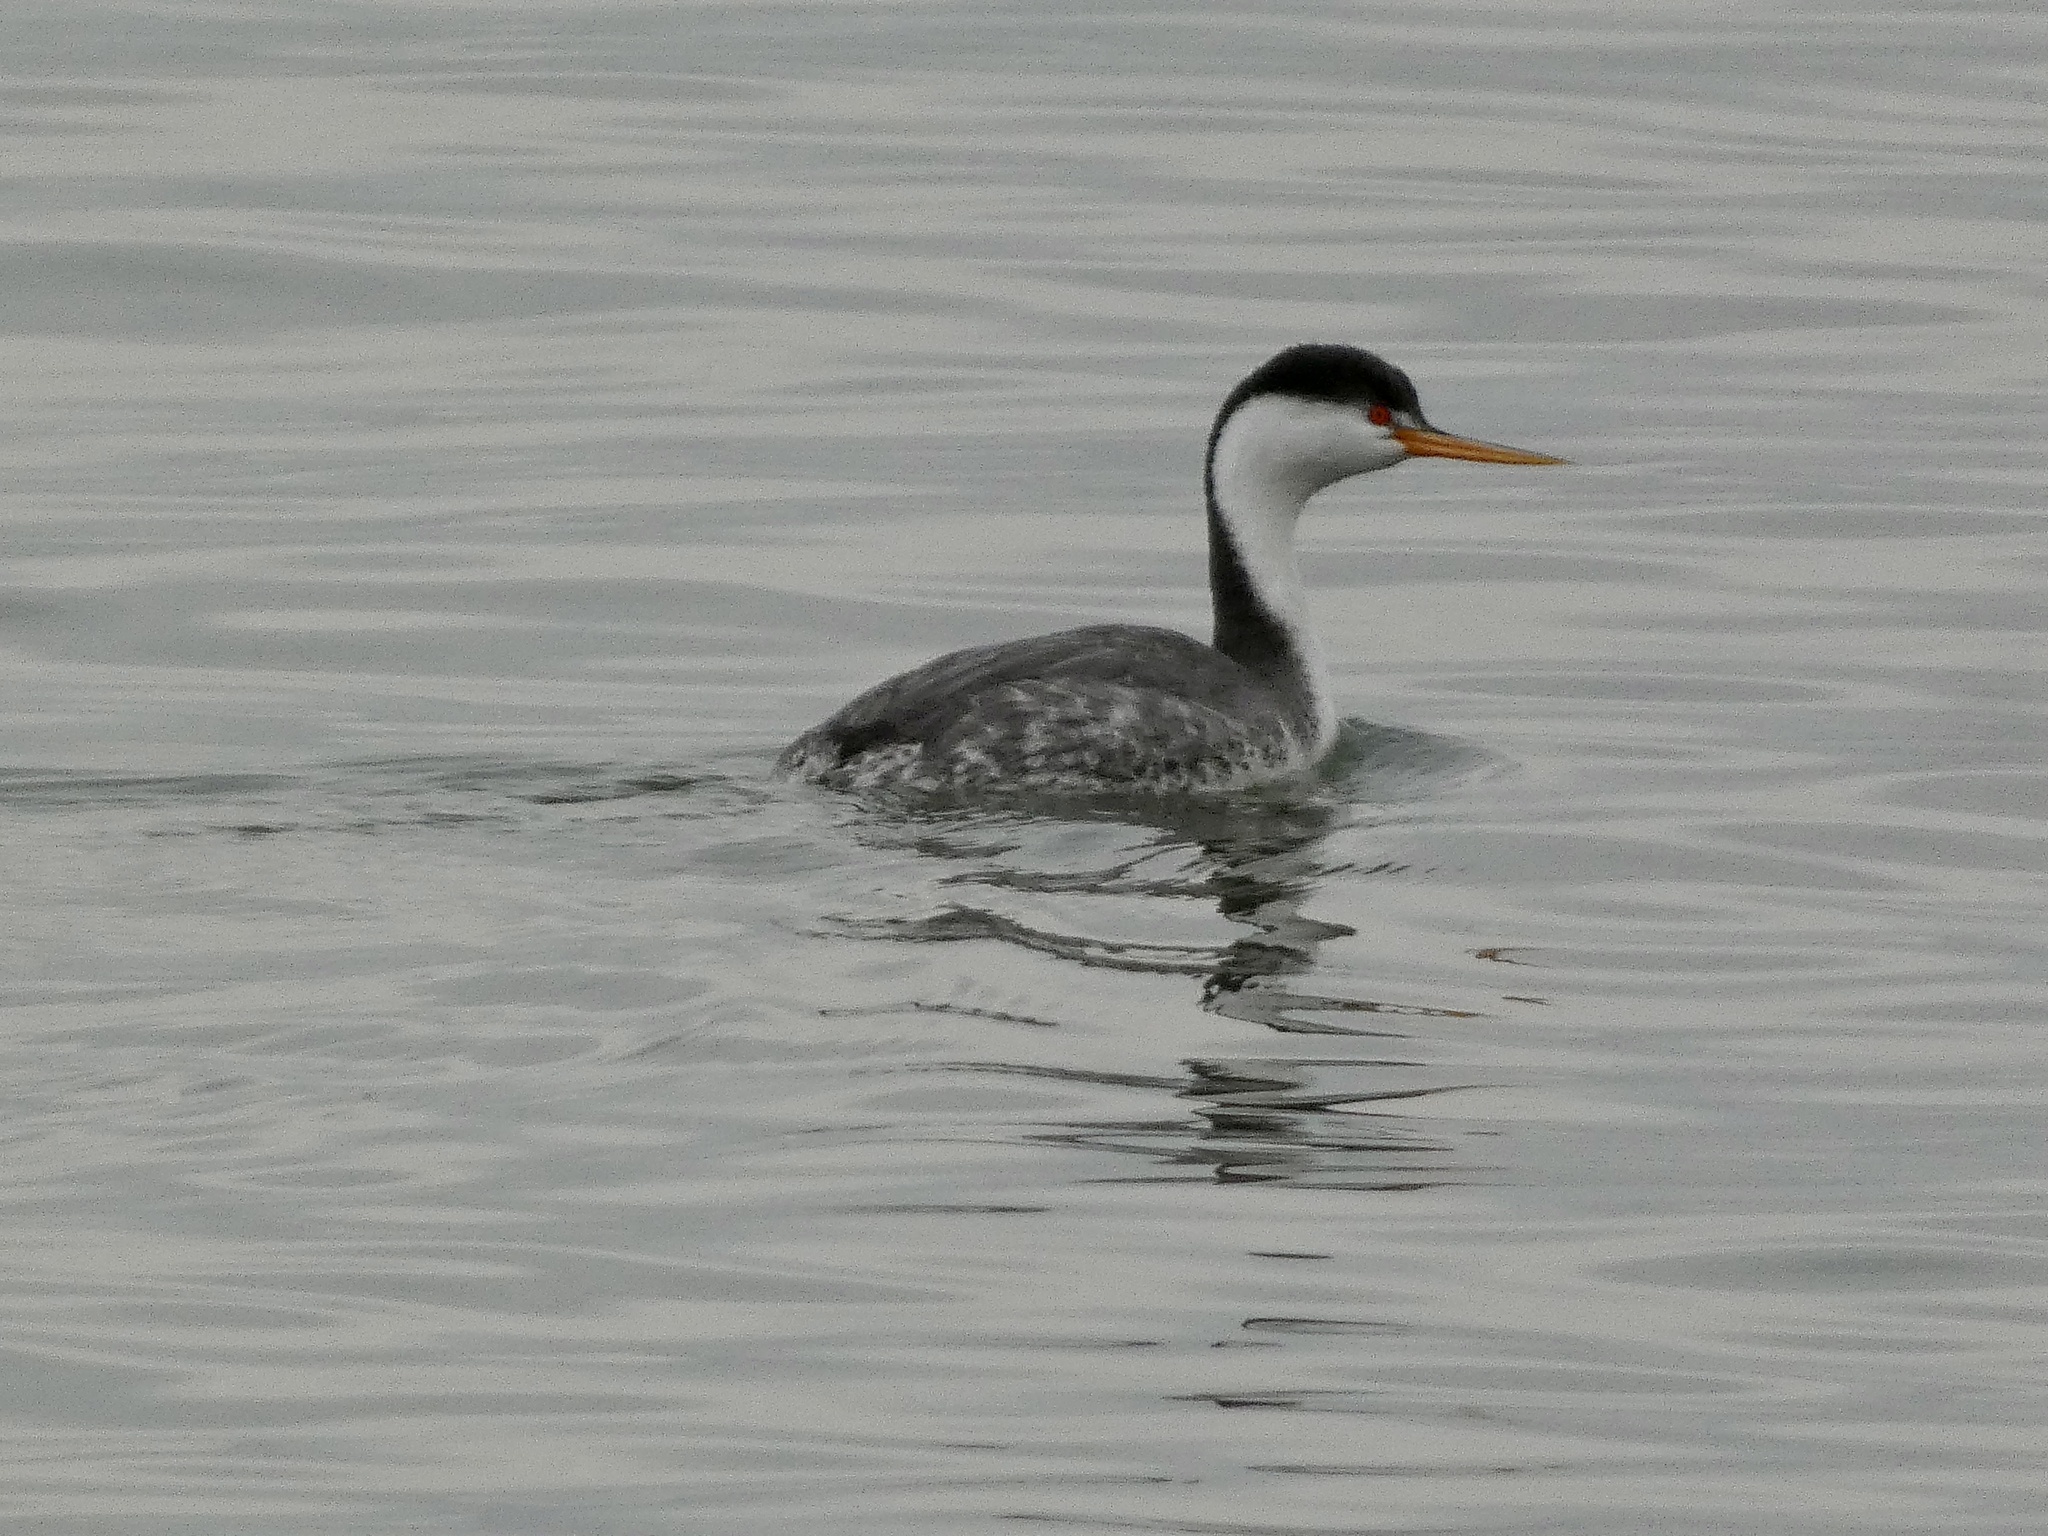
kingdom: Animalia
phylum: Chordata
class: Aves
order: Podicipediformes
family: Podicipedidae
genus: Aechmophorus
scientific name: Aechmophorus clarkii
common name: Clark's grebe
